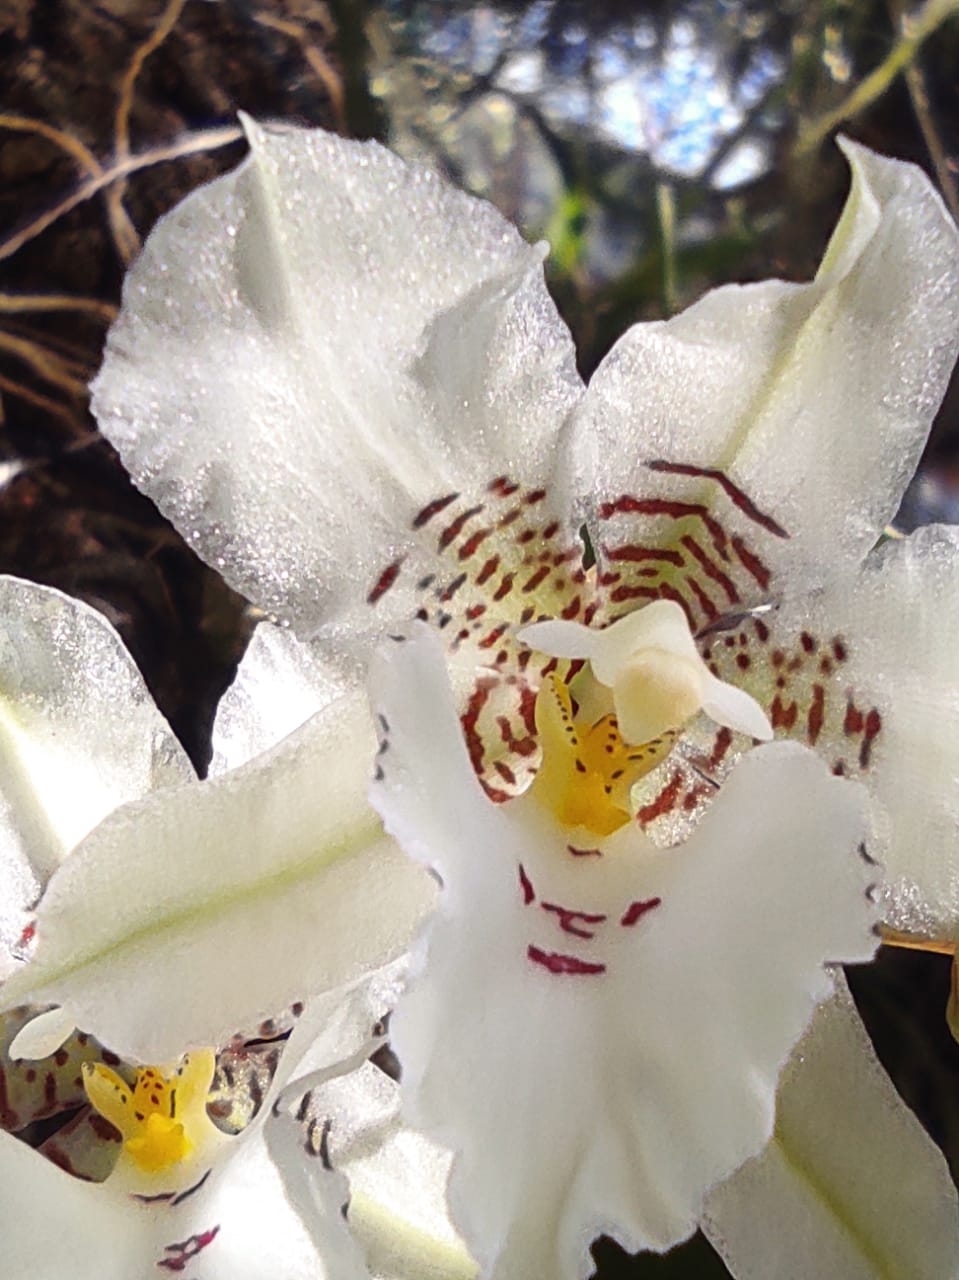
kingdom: Plantae
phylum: Tracheophyta
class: Liliopsida
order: Asparagales
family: Orchidaceae
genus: Rhynchostele
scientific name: Rhynchostele cervantesii
